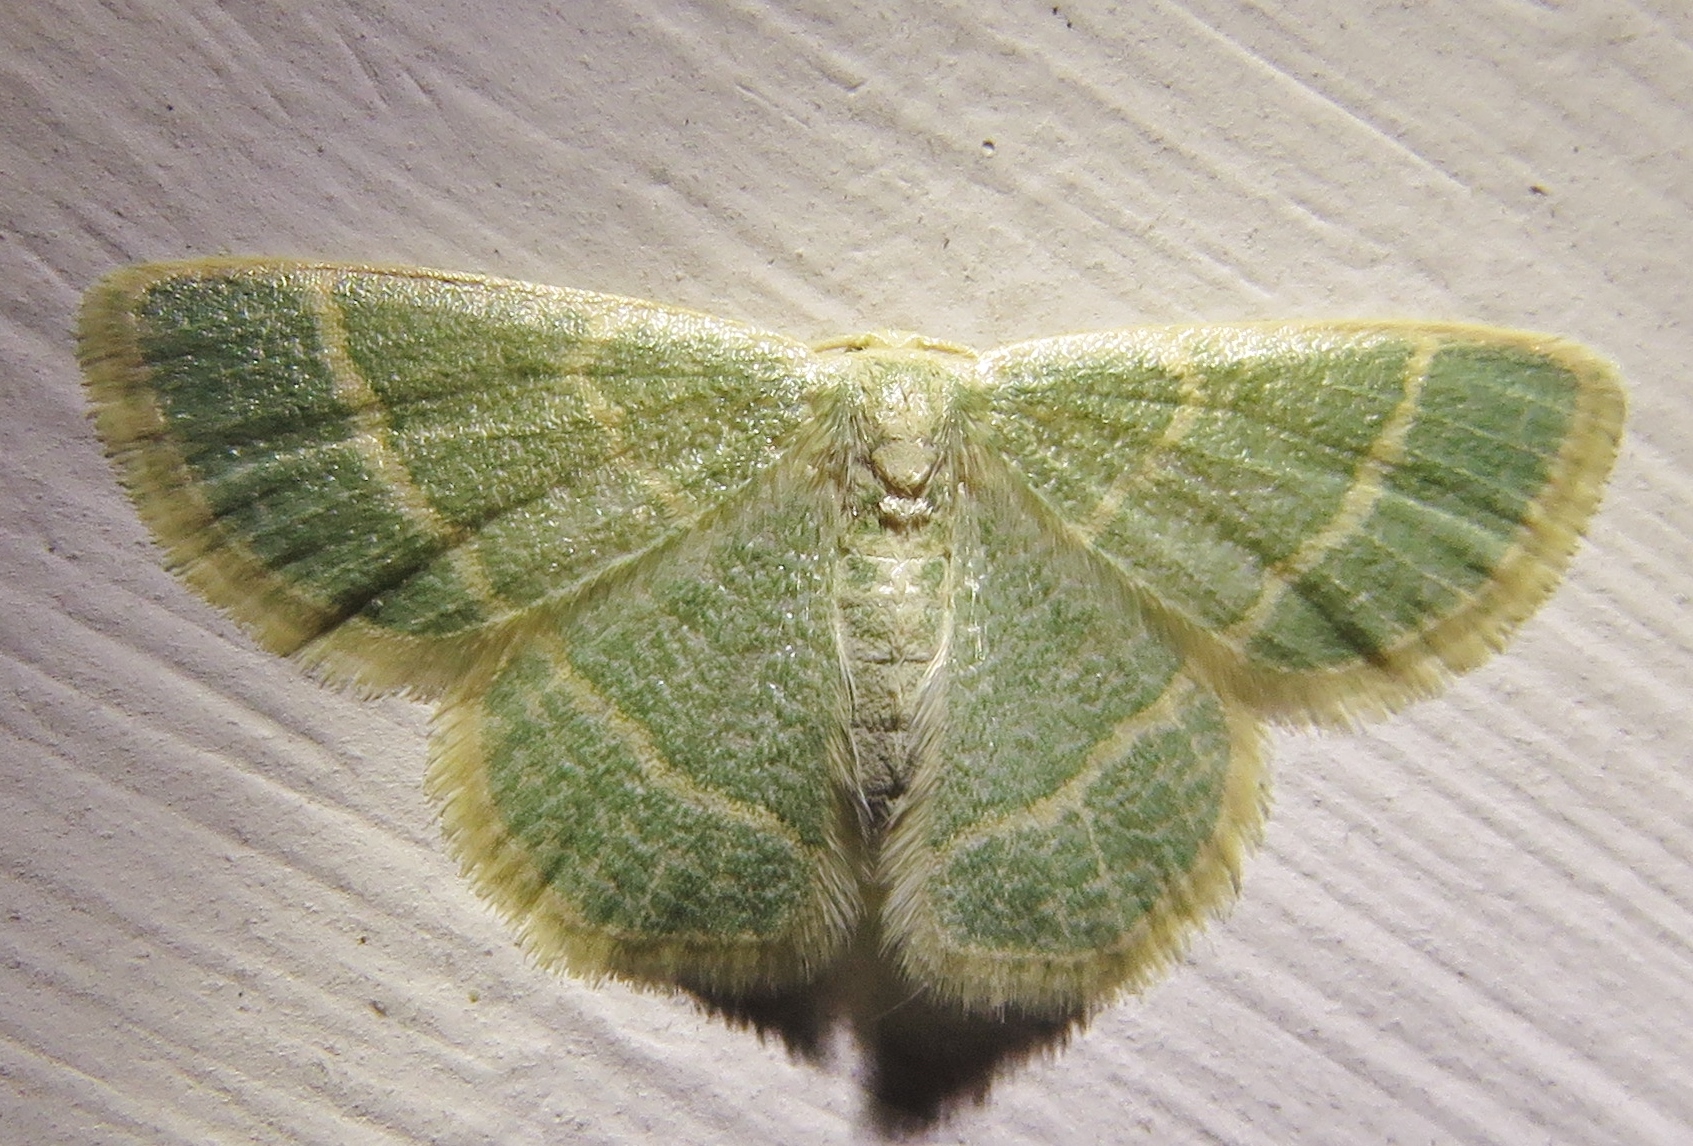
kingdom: Animalia
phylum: Arthropoda
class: Insecta
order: Lepidoptera
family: Geometridae
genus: Chlorochlamys
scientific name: Chlorochlamys chloroleucaria
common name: Blackberry looper
